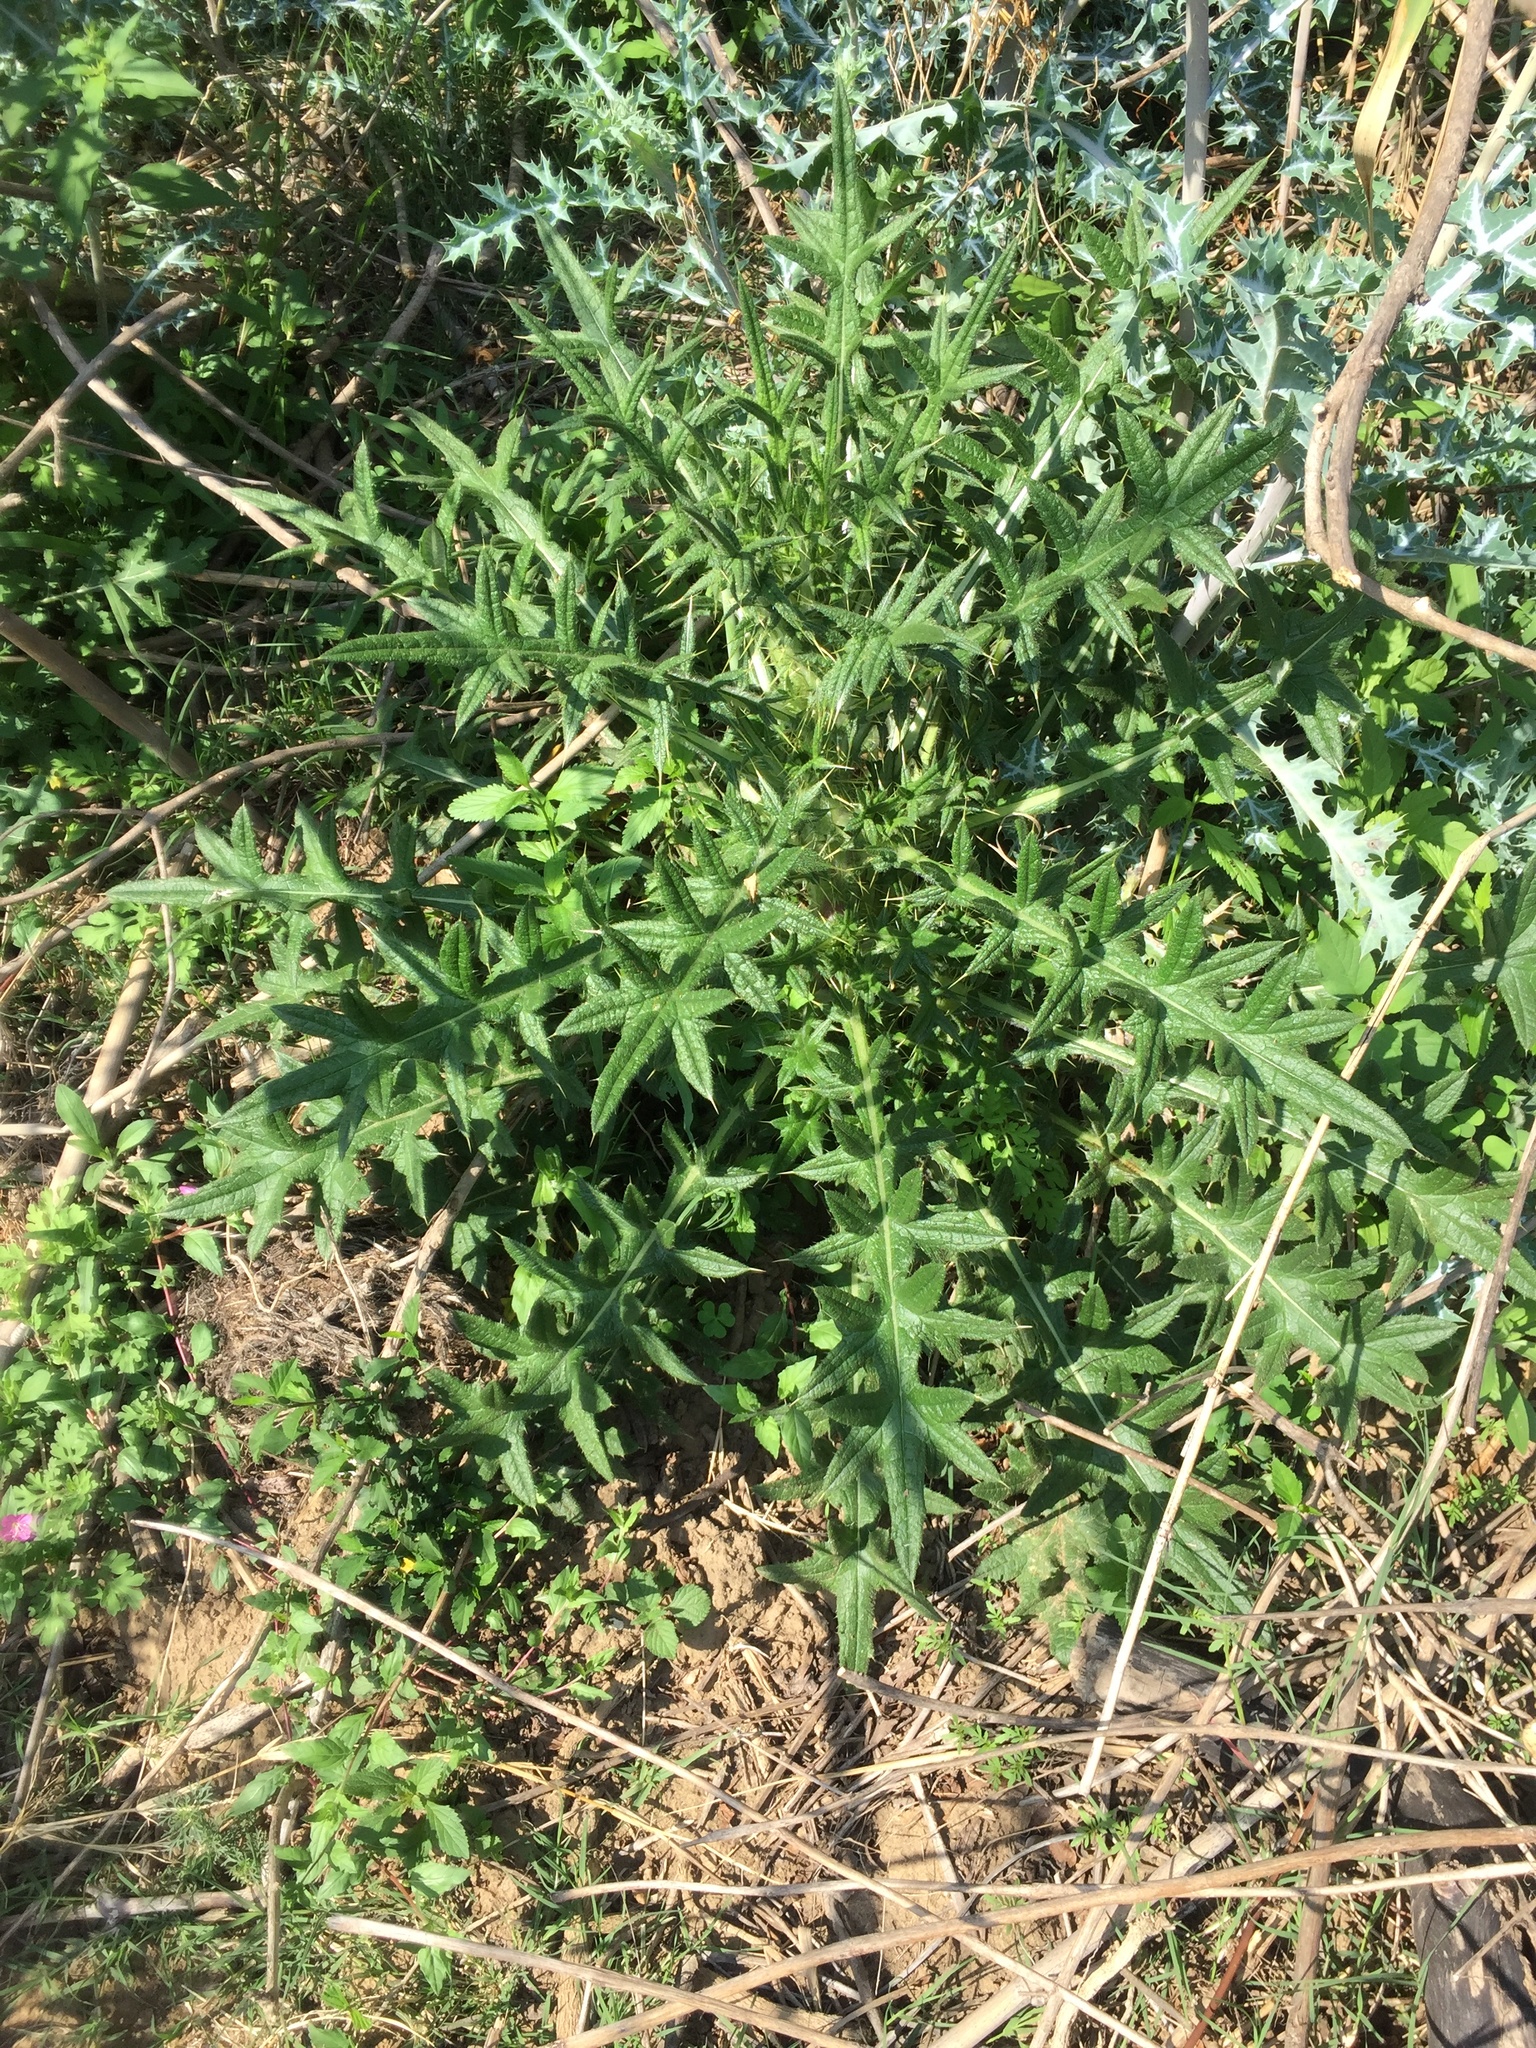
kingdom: Plantae
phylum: Tracheophyta
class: Magnoliopsida
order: Asterales
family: Asteraceae
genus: Cirsium
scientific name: Cirsium vulgare
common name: Bull thistle
